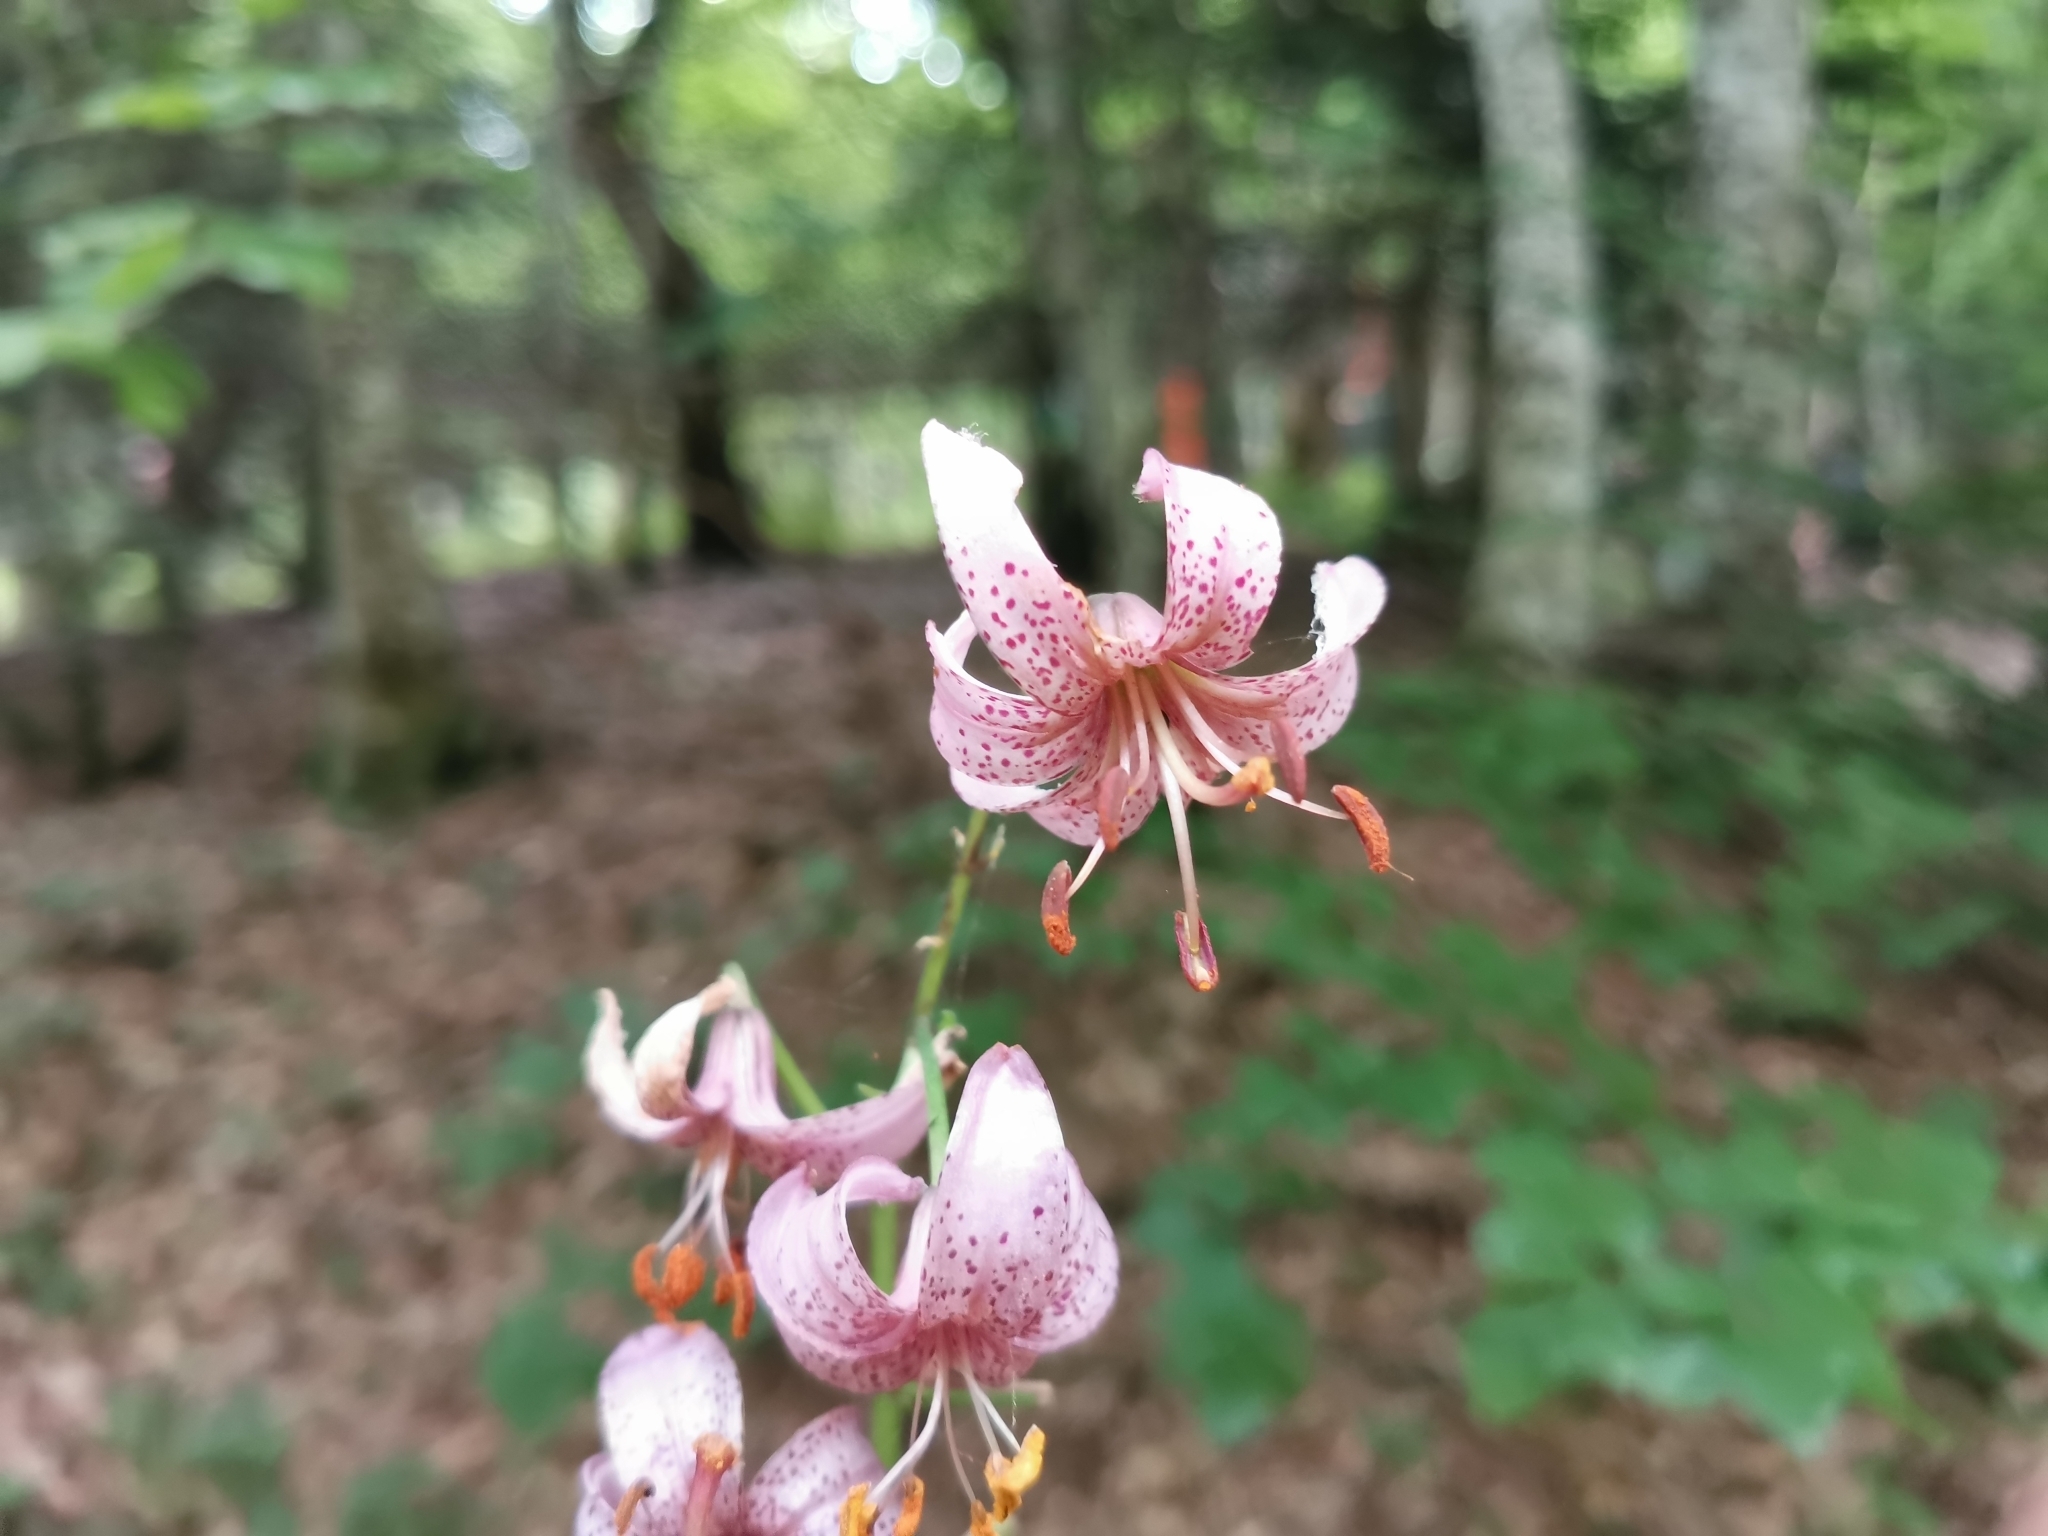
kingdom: Plantae
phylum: Tracheophyta
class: Liliopsida
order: Liliales
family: Liliaceae
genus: Lilium
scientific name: Lilium martagon
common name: Martagon lily
